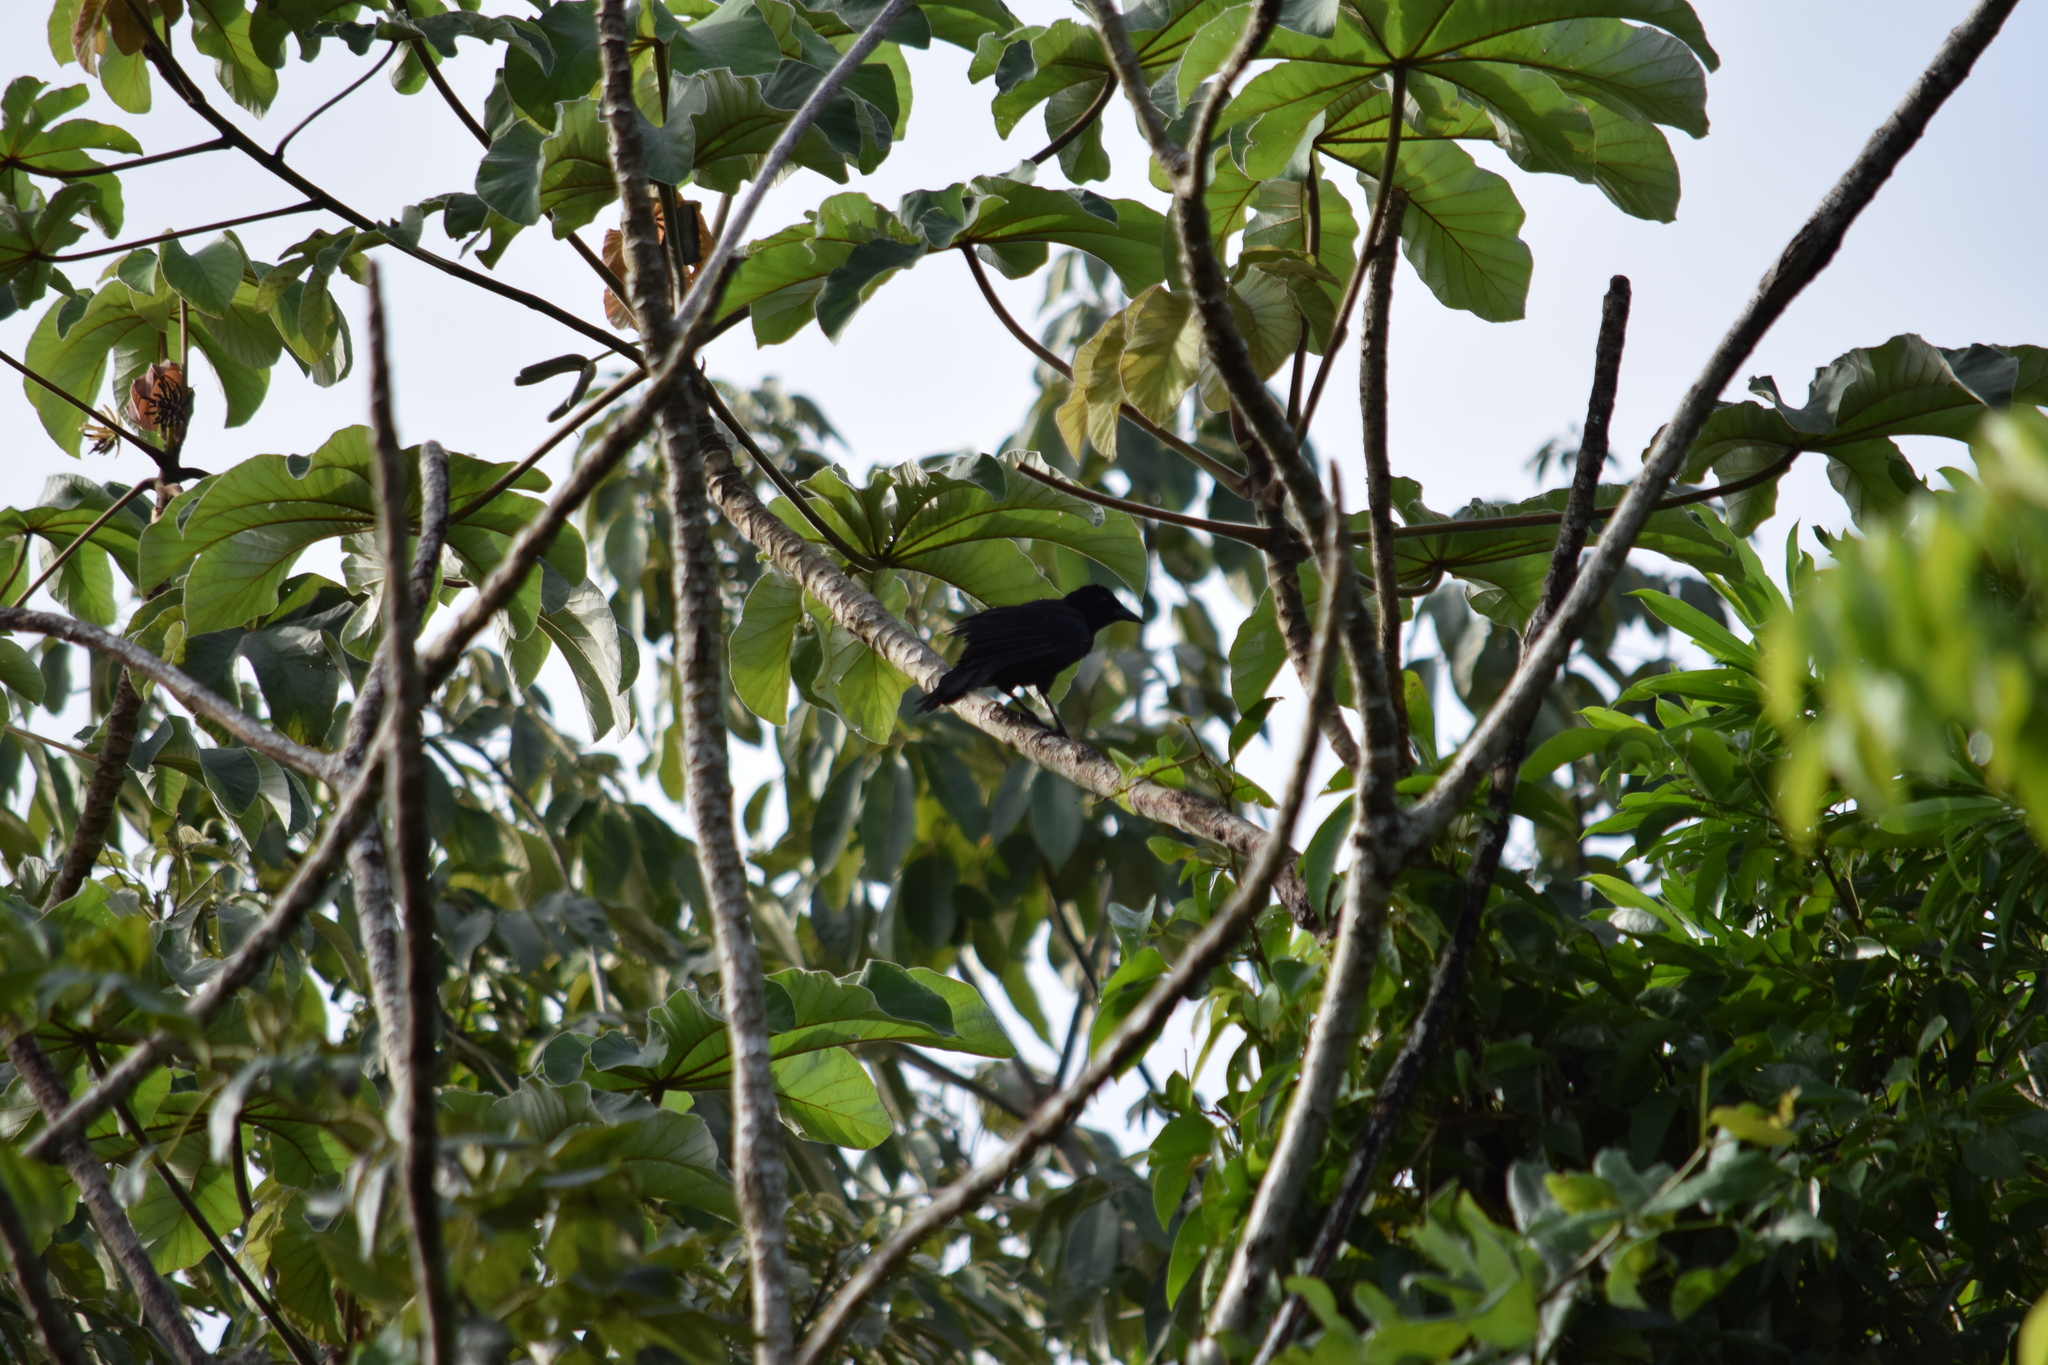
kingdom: Animalia
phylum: Chordata
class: Aves
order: Passeriformes
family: Icteridae
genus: Dives
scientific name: Dives dives
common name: Melodious blackbird
